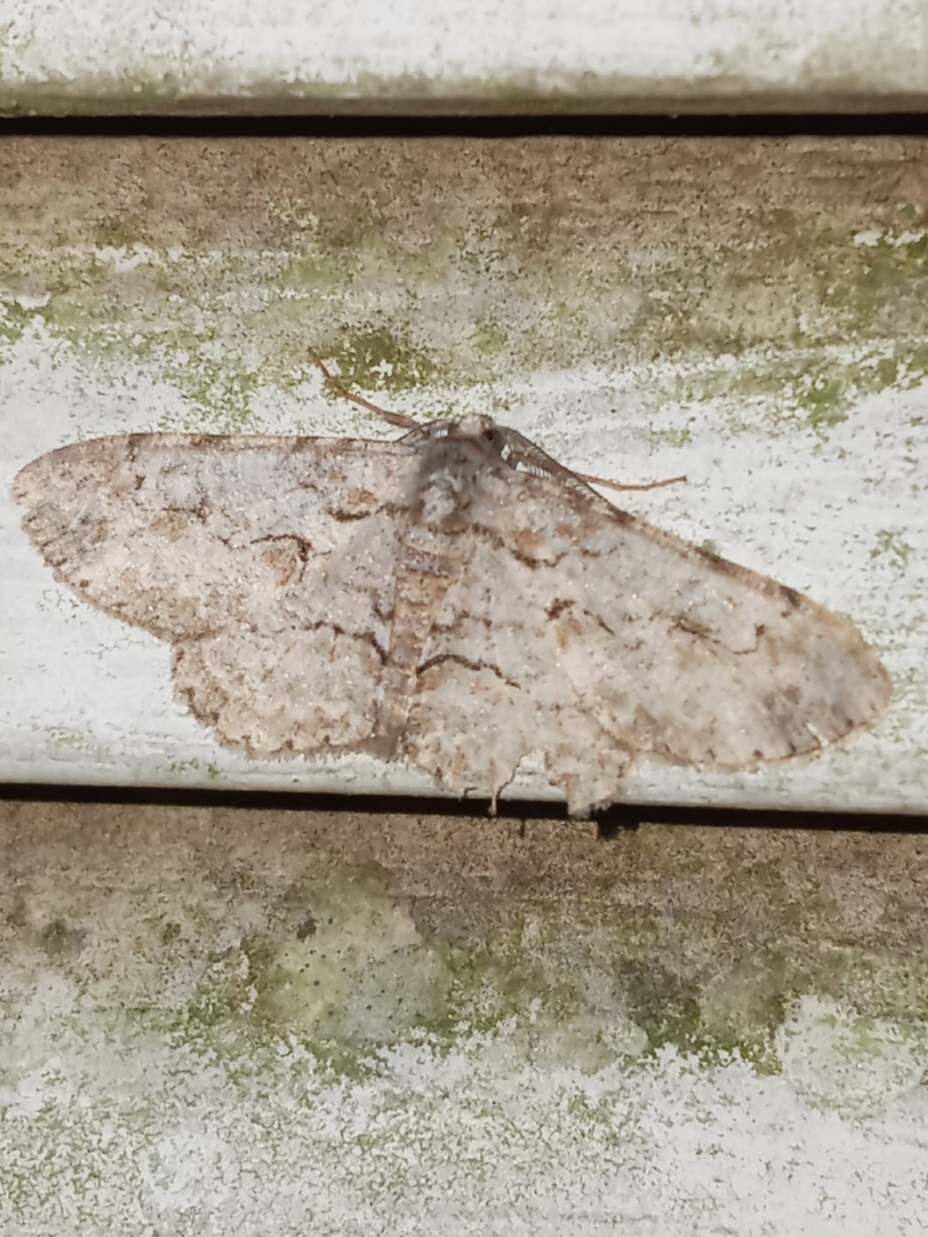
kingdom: Animalia
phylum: Arthropoda
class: Insecta
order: Lepidoptera
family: Geometridae
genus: Iridopsis
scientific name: Iridopsis defectaria
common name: Brown-shaded gray
